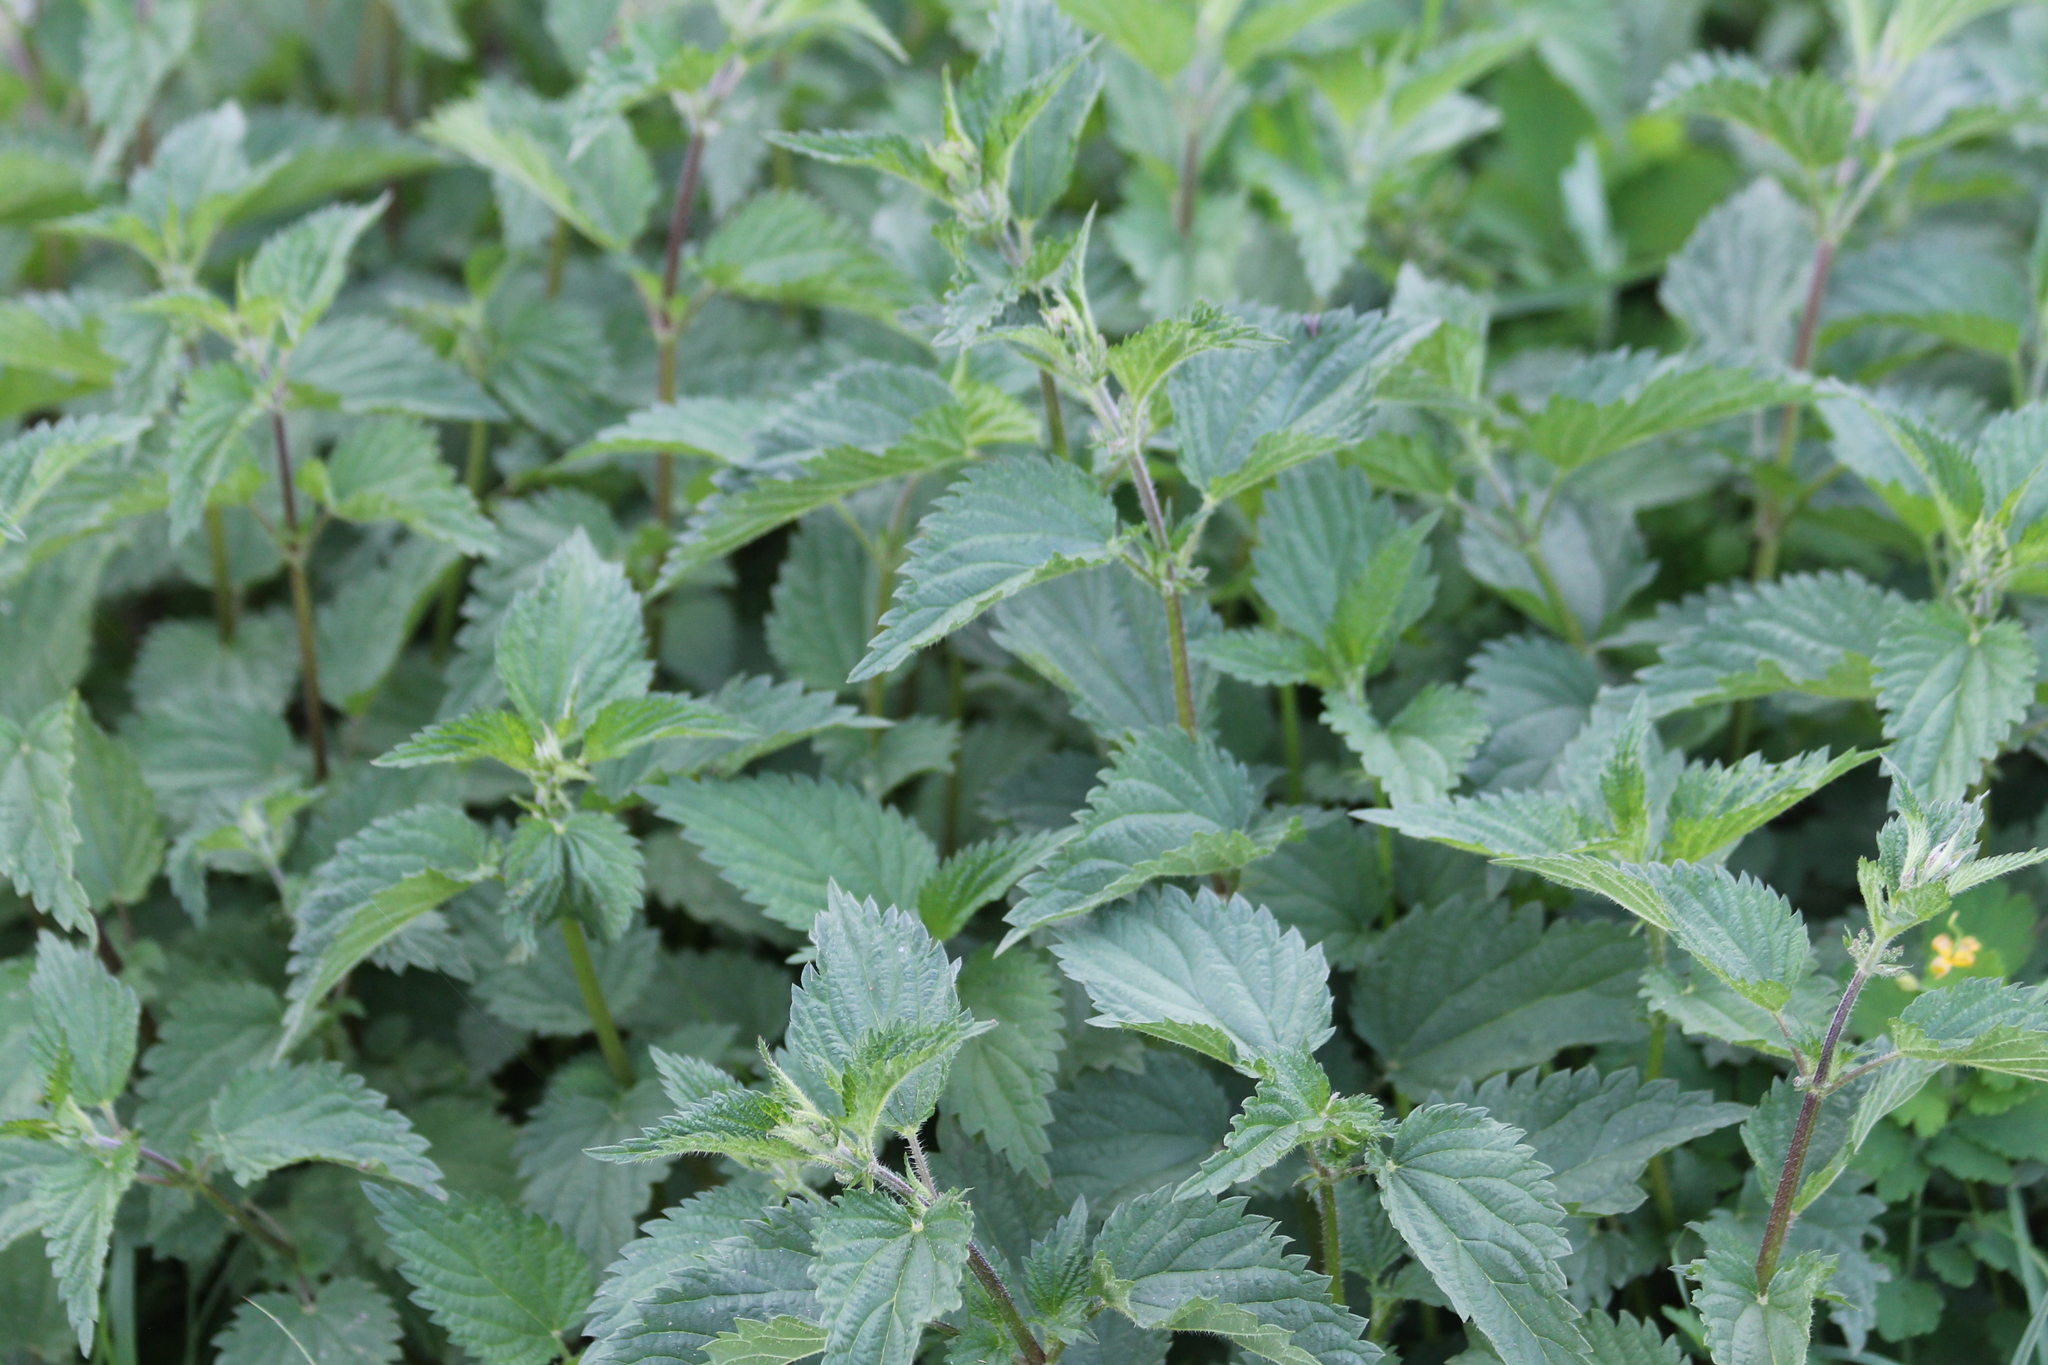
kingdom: Plantae
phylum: Tracheophyta
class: Magnoliopsida
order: Rosales
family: Urticaceae
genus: Urtica
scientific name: Urtica dioica
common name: Common nettle
